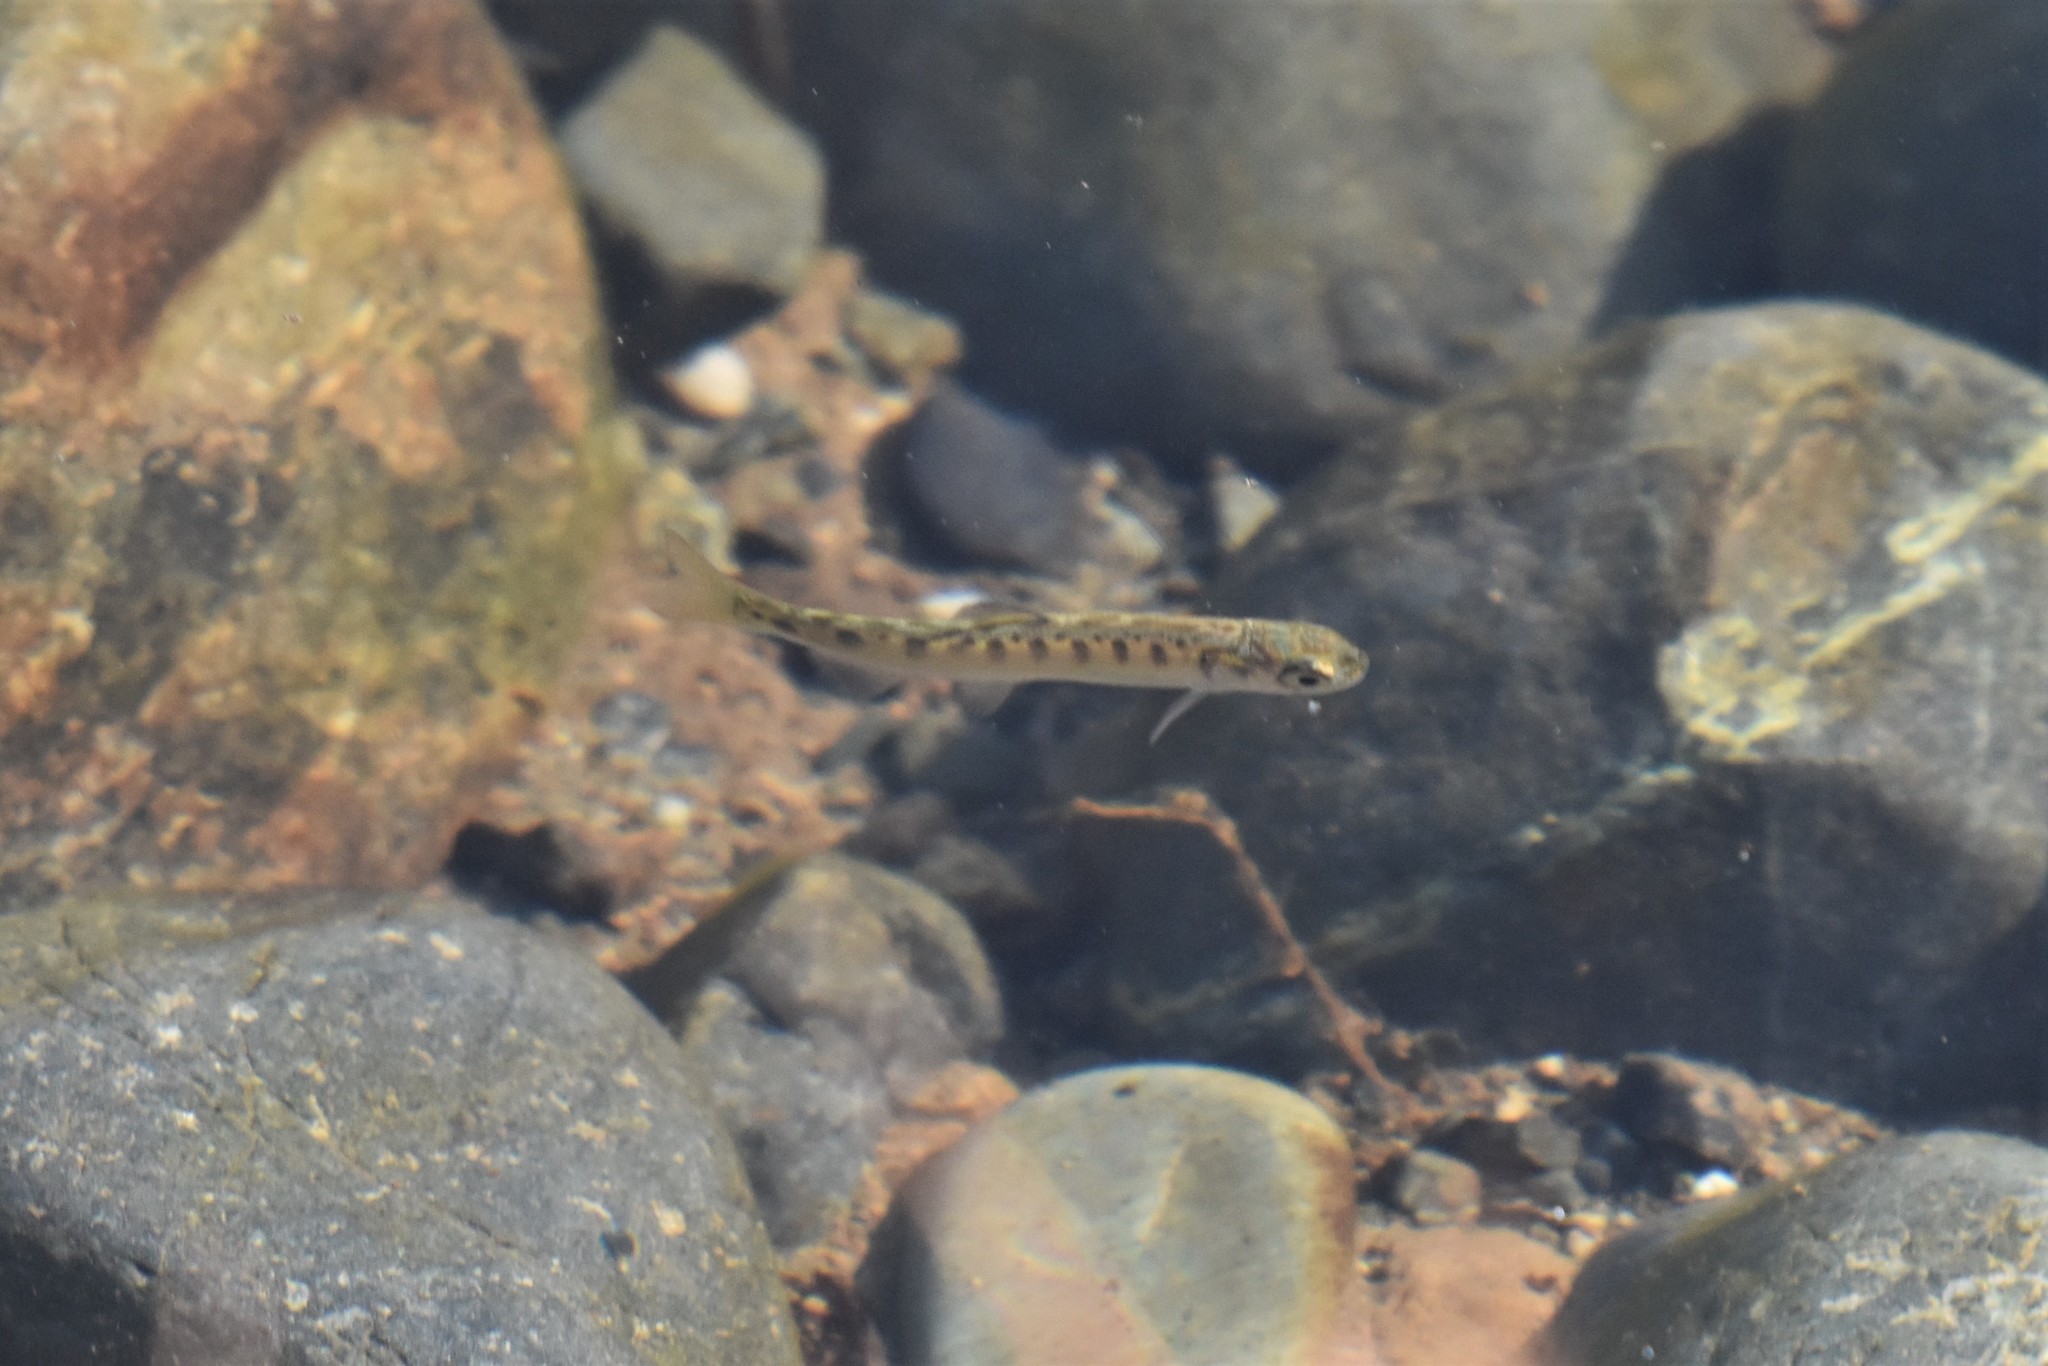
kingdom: Animalia
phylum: Chordata
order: Salmoniformes
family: Salmonidae
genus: Oncorhynchus
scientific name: Oncorhynchus kisutch
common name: Coho salmon
